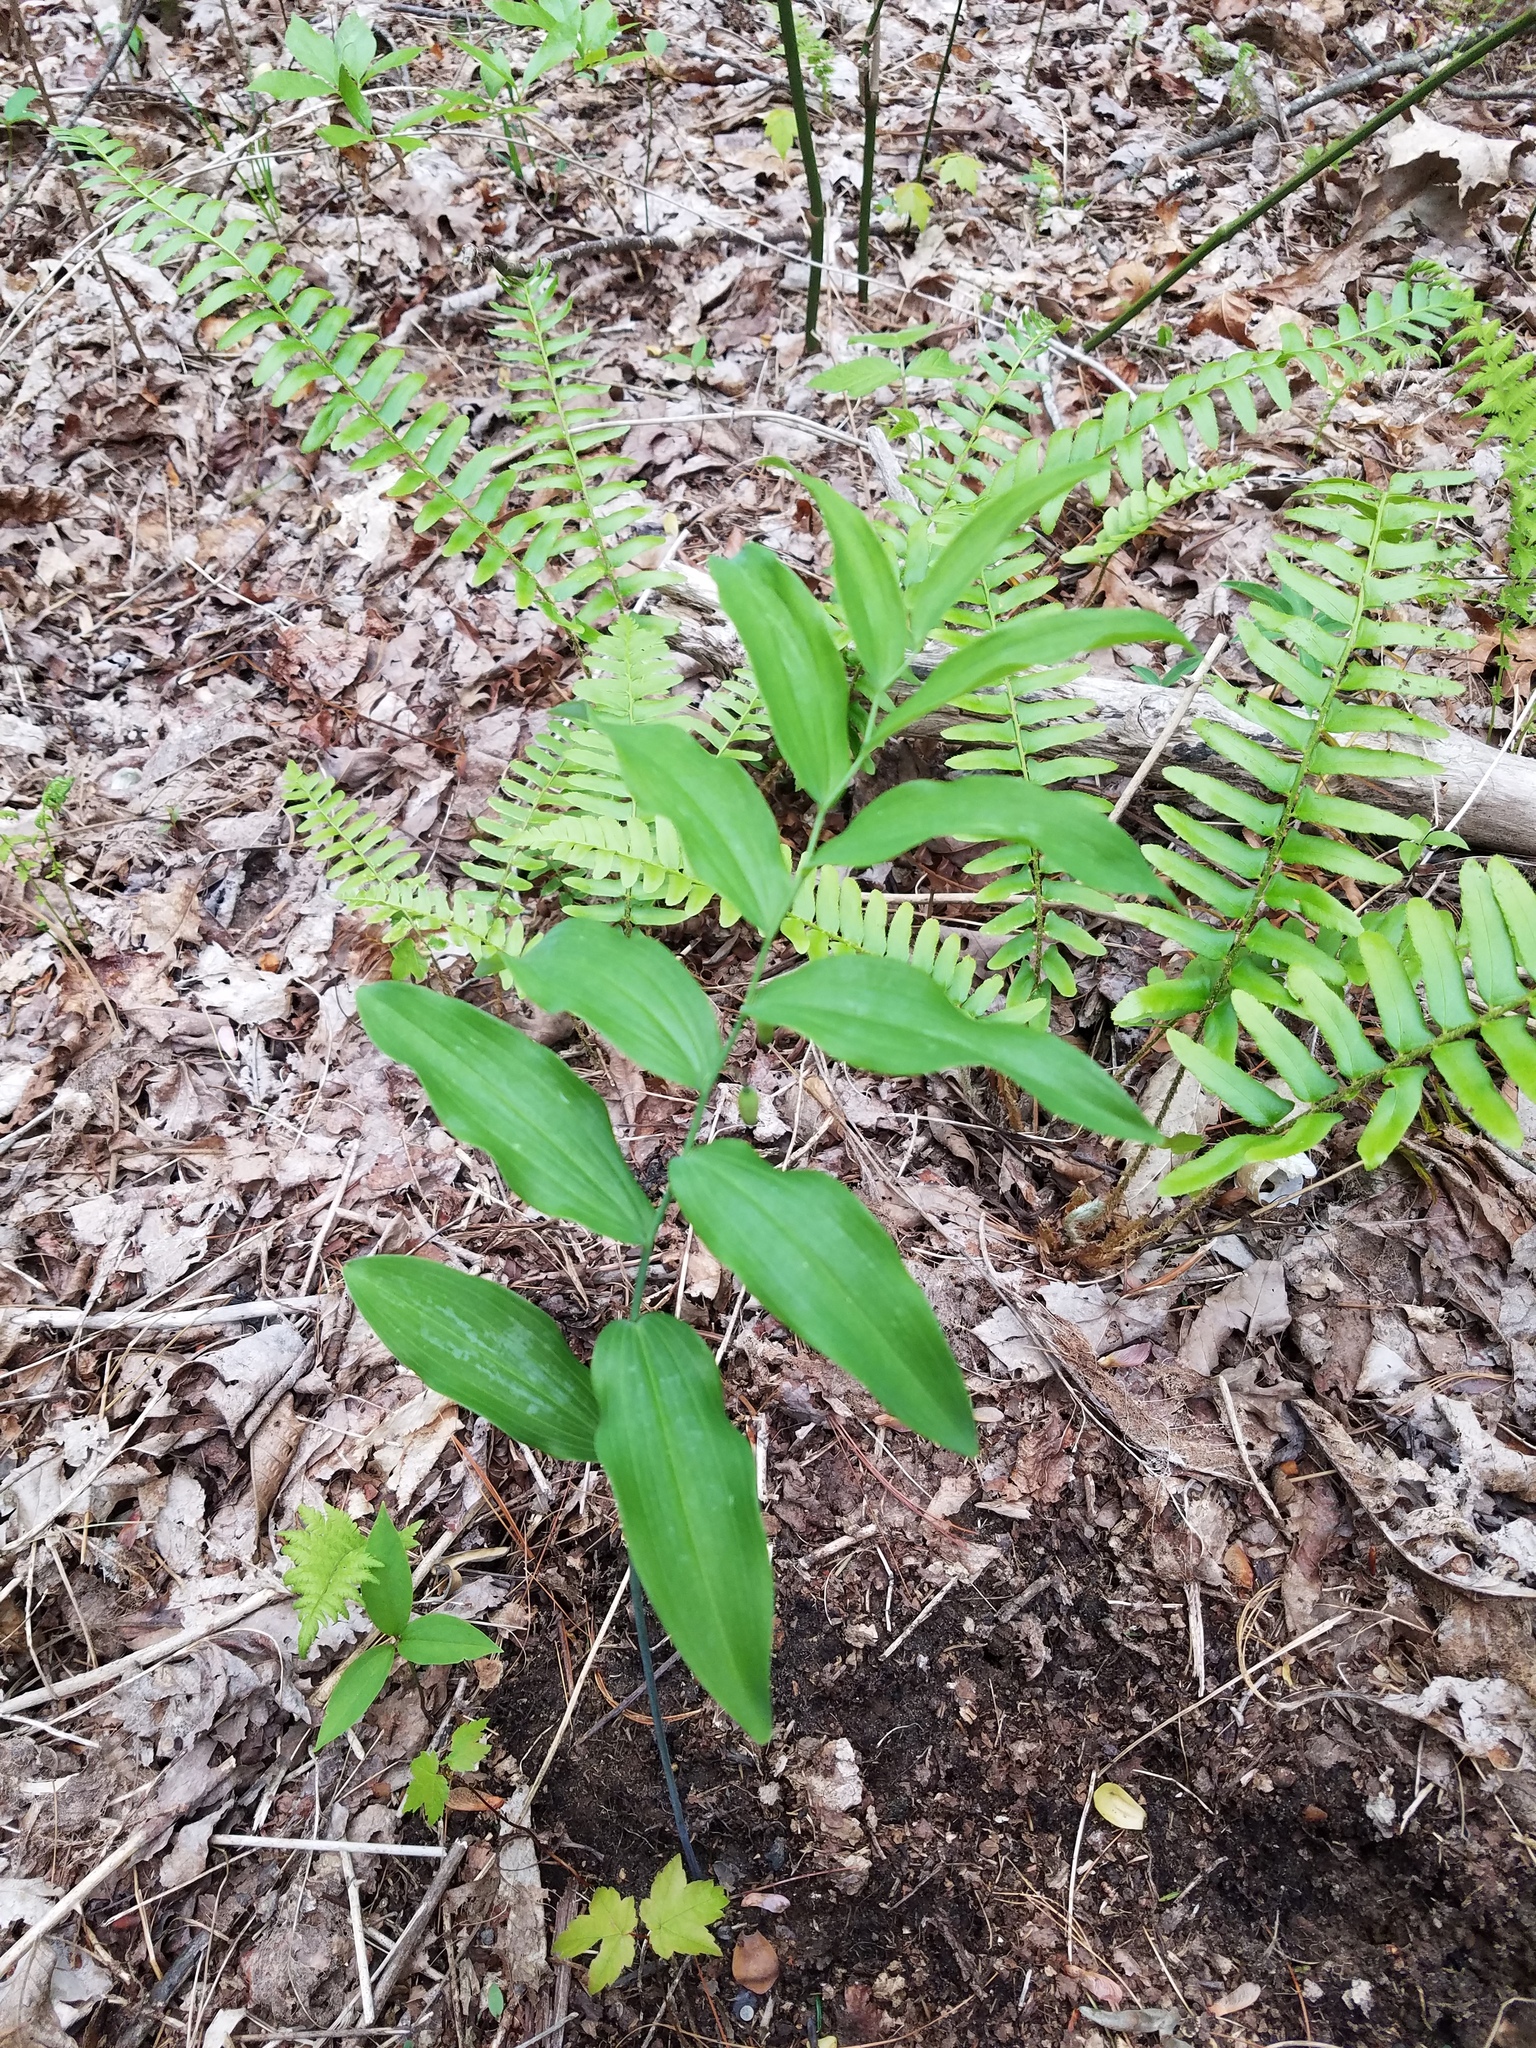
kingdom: Plantae
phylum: Tracheophyta
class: Liliopsida
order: Asparagales
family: Asparagaceae
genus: Polygonatum
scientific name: Polygonatum biflorum
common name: American solomon's-seal
